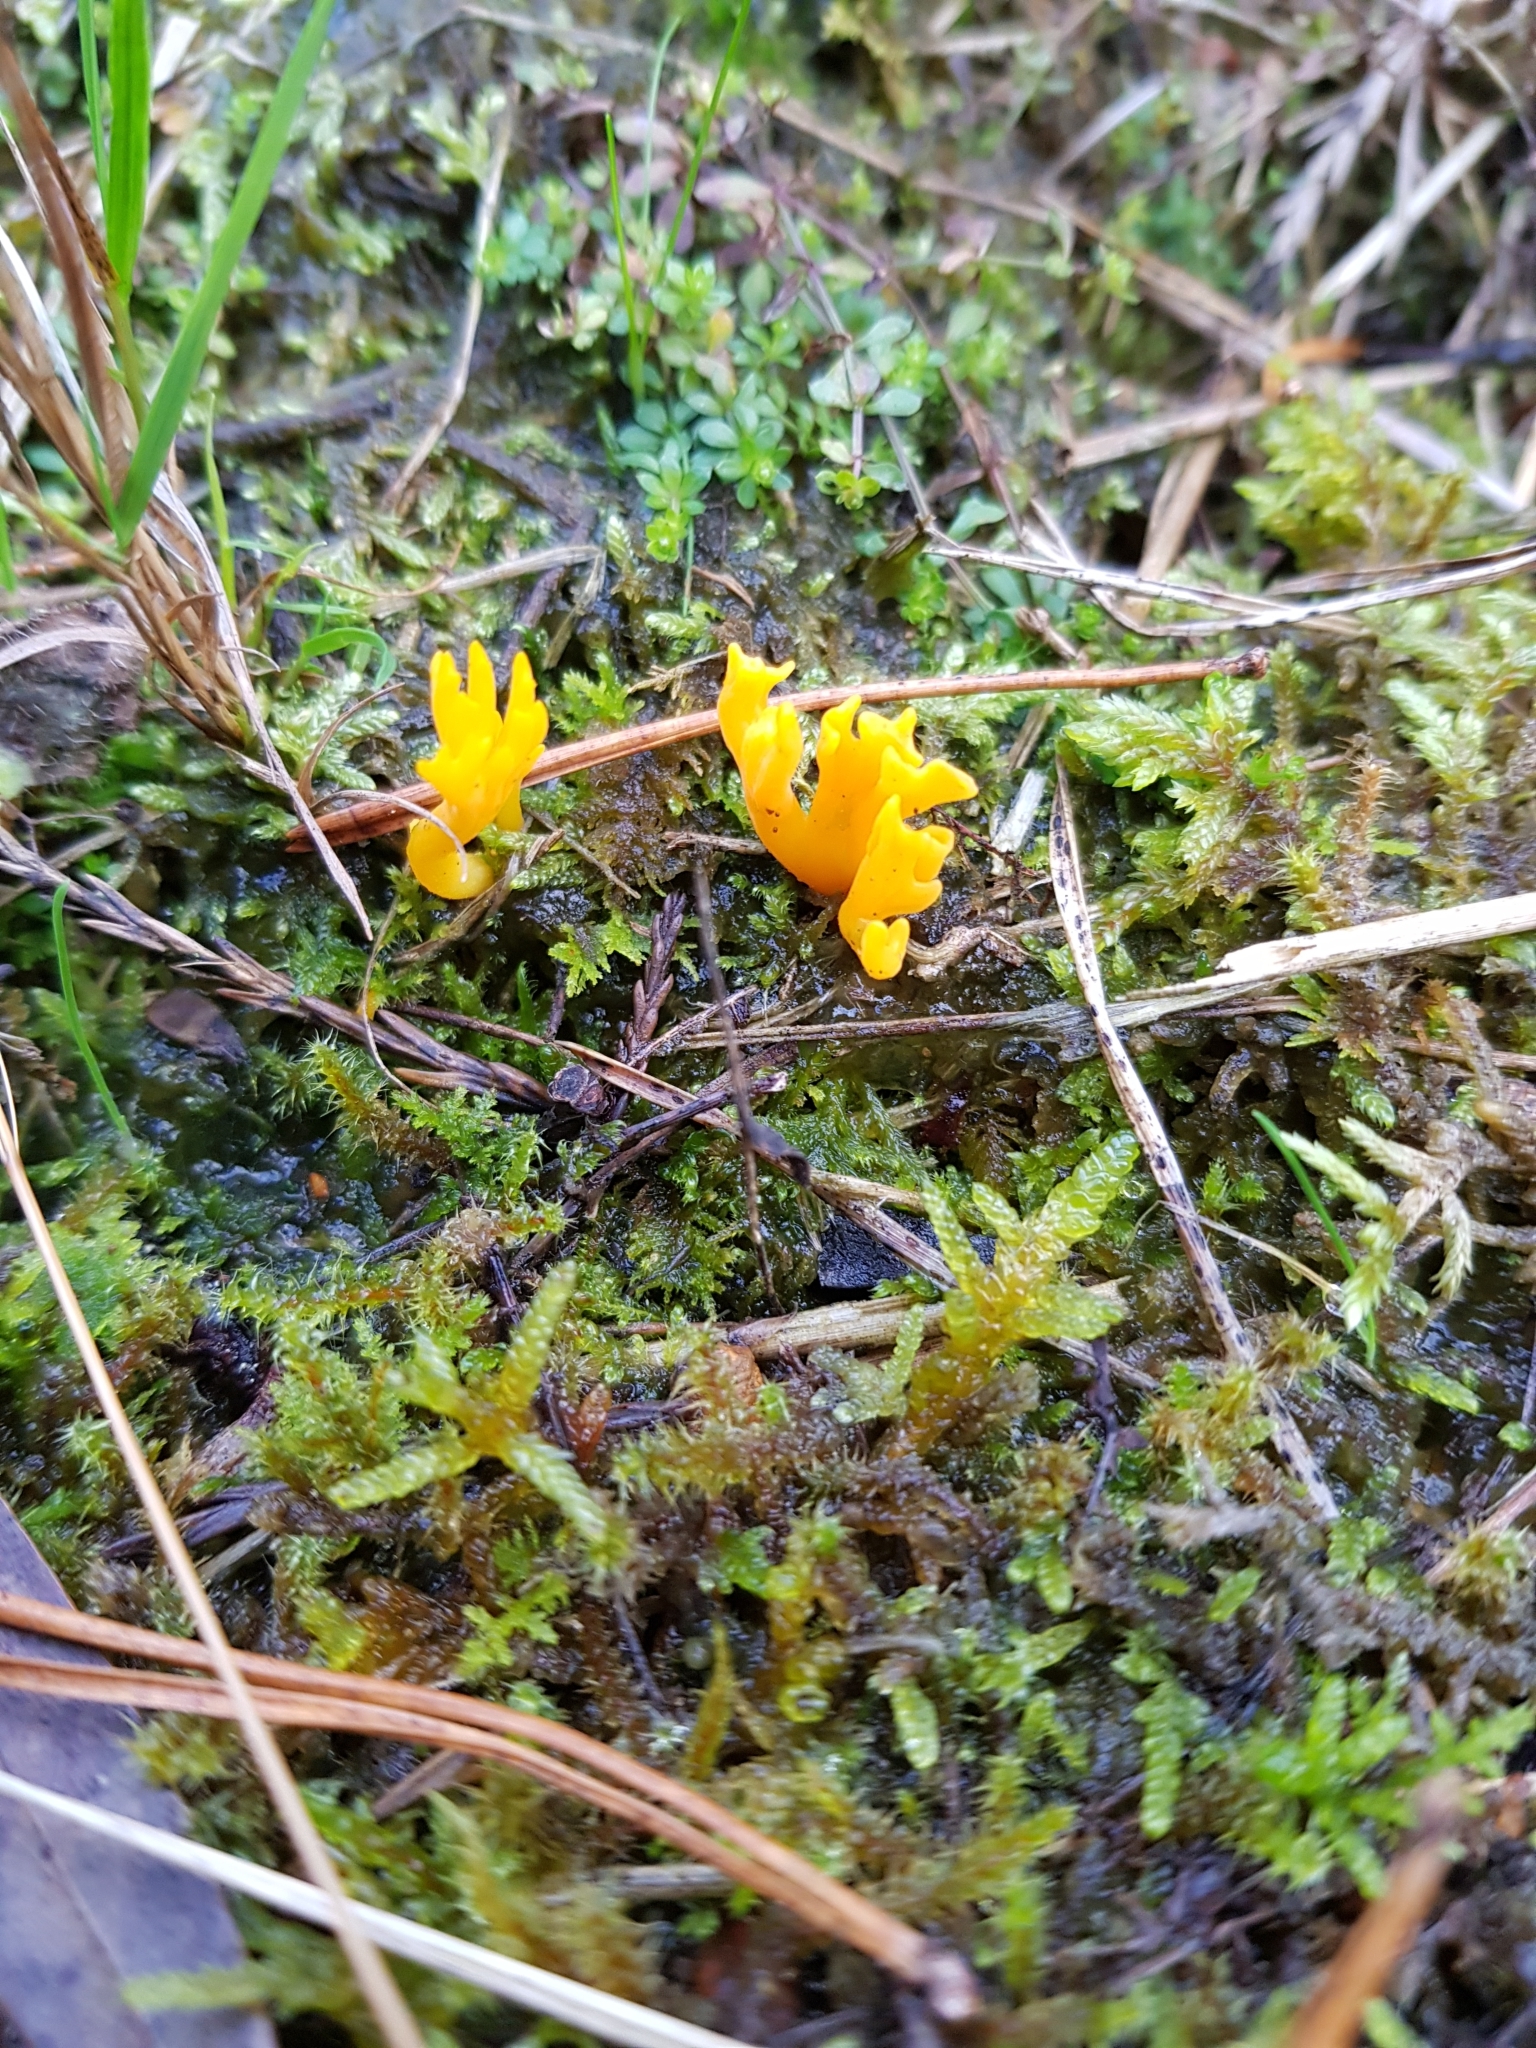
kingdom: Fungi
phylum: Basidiomycota
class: Dacrymycetes
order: Dacrymycetales
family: Dacrymycetaceae
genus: Calocera
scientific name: Calocera viscosa
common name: Yellow stagshorn
